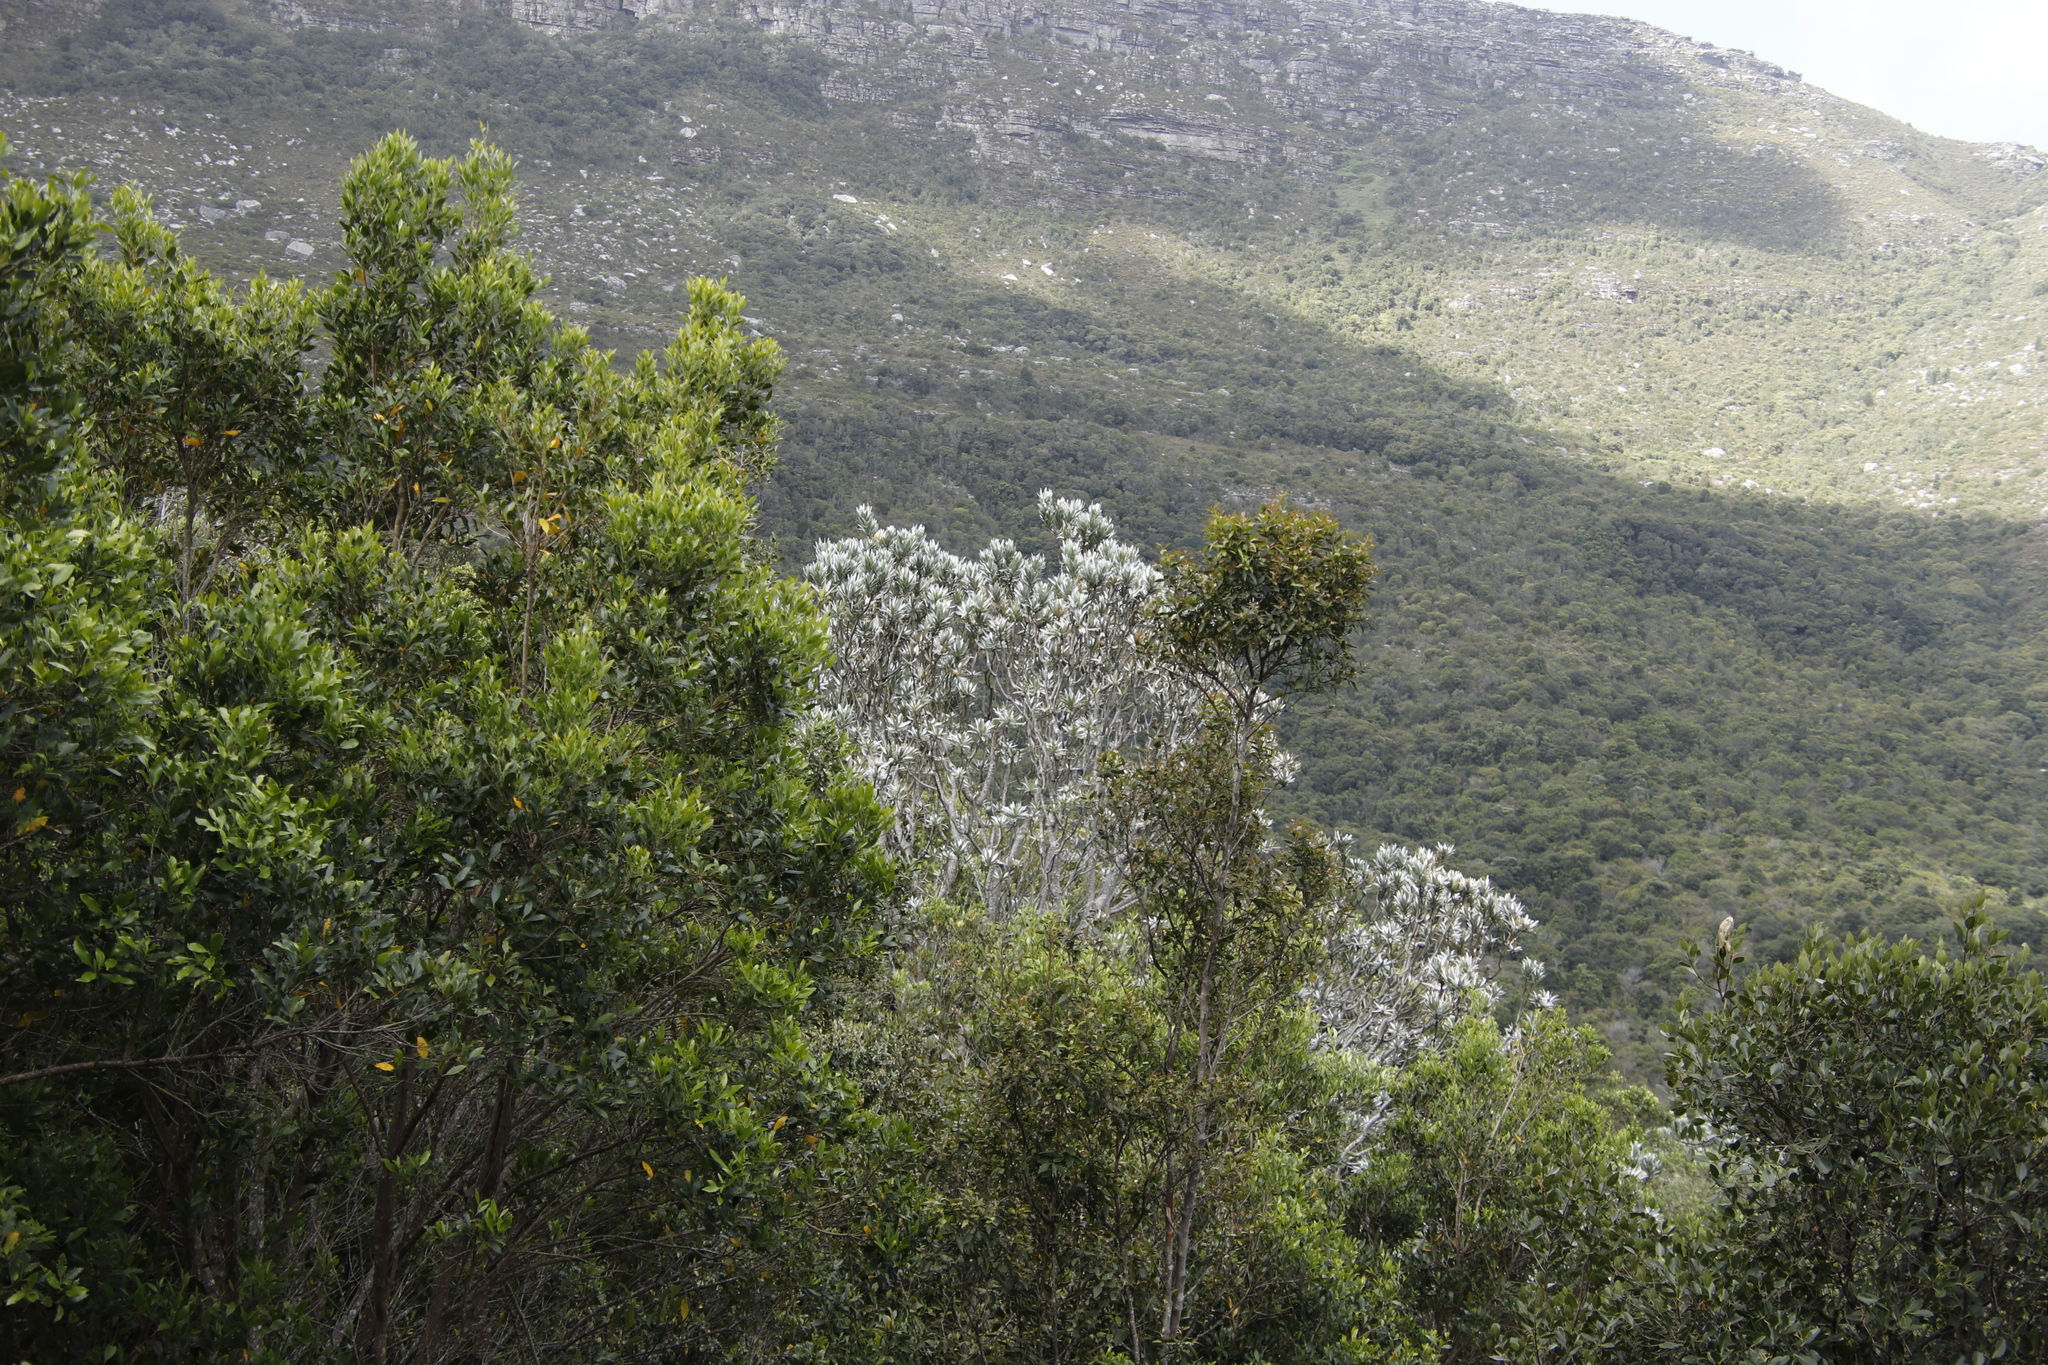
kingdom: Plantae
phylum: Tracheophyta
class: Magnoliopsida
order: Proteales
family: Proteaceae
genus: Leucadendron
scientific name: Leucadendron argenteum
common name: Cape silver tree
